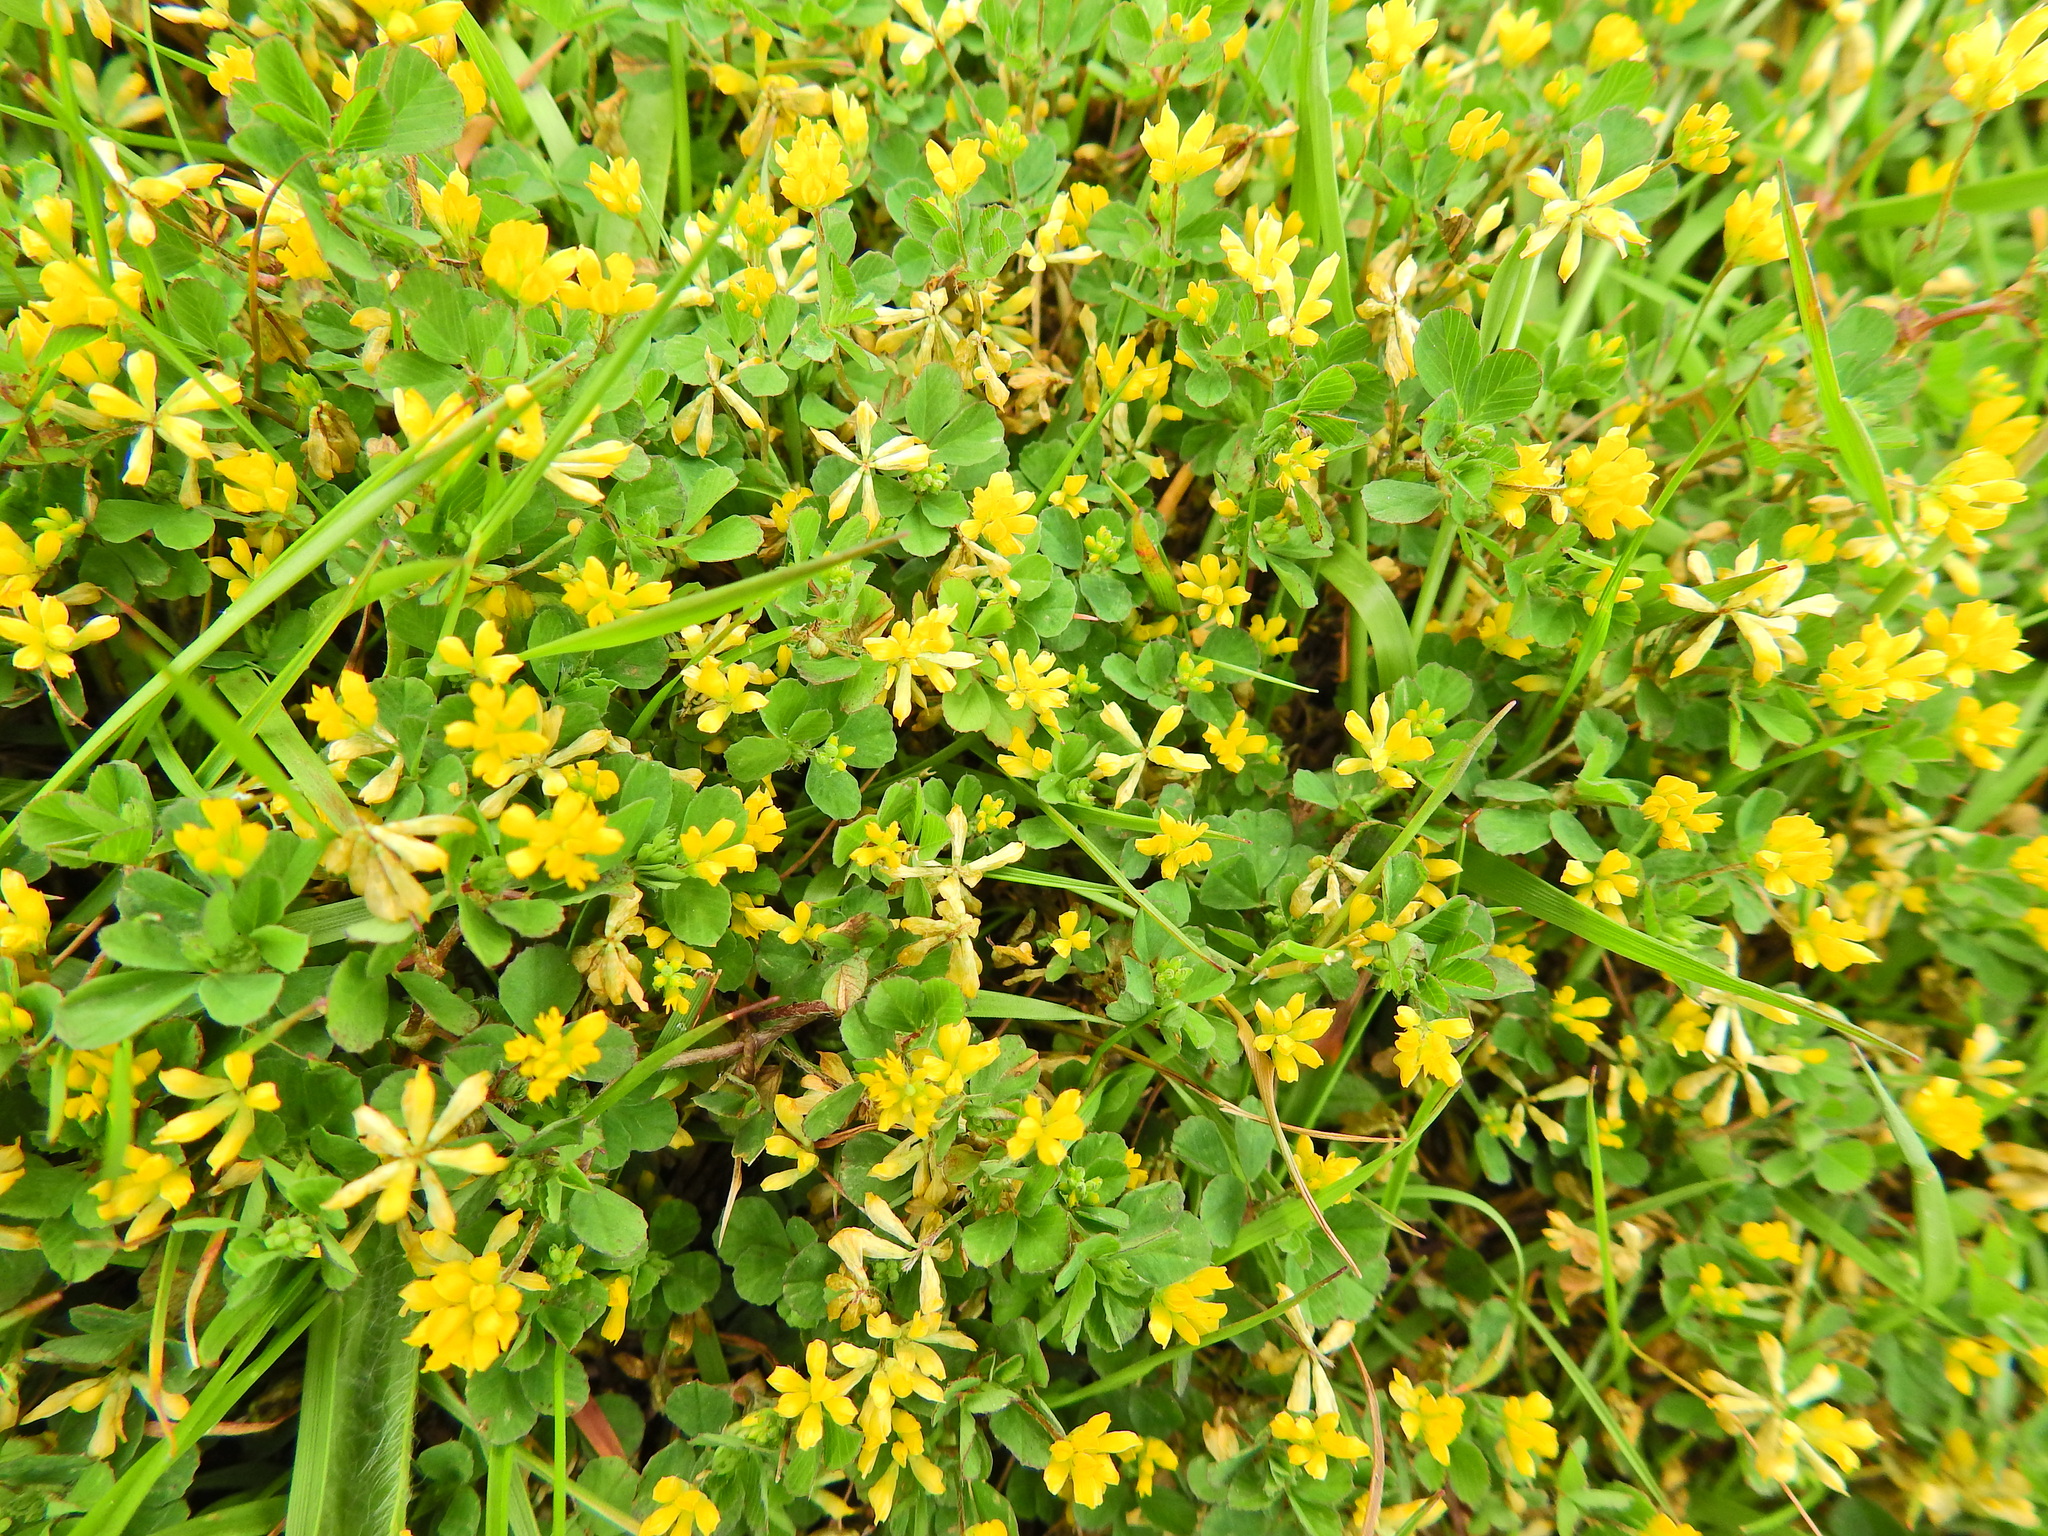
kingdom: Plantae
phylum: Tracheophyta
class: Magnoliopsida
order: Fabales
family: Fabaceae
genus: Trifolium
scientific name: Trifolium dubium
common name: Suckling clover
